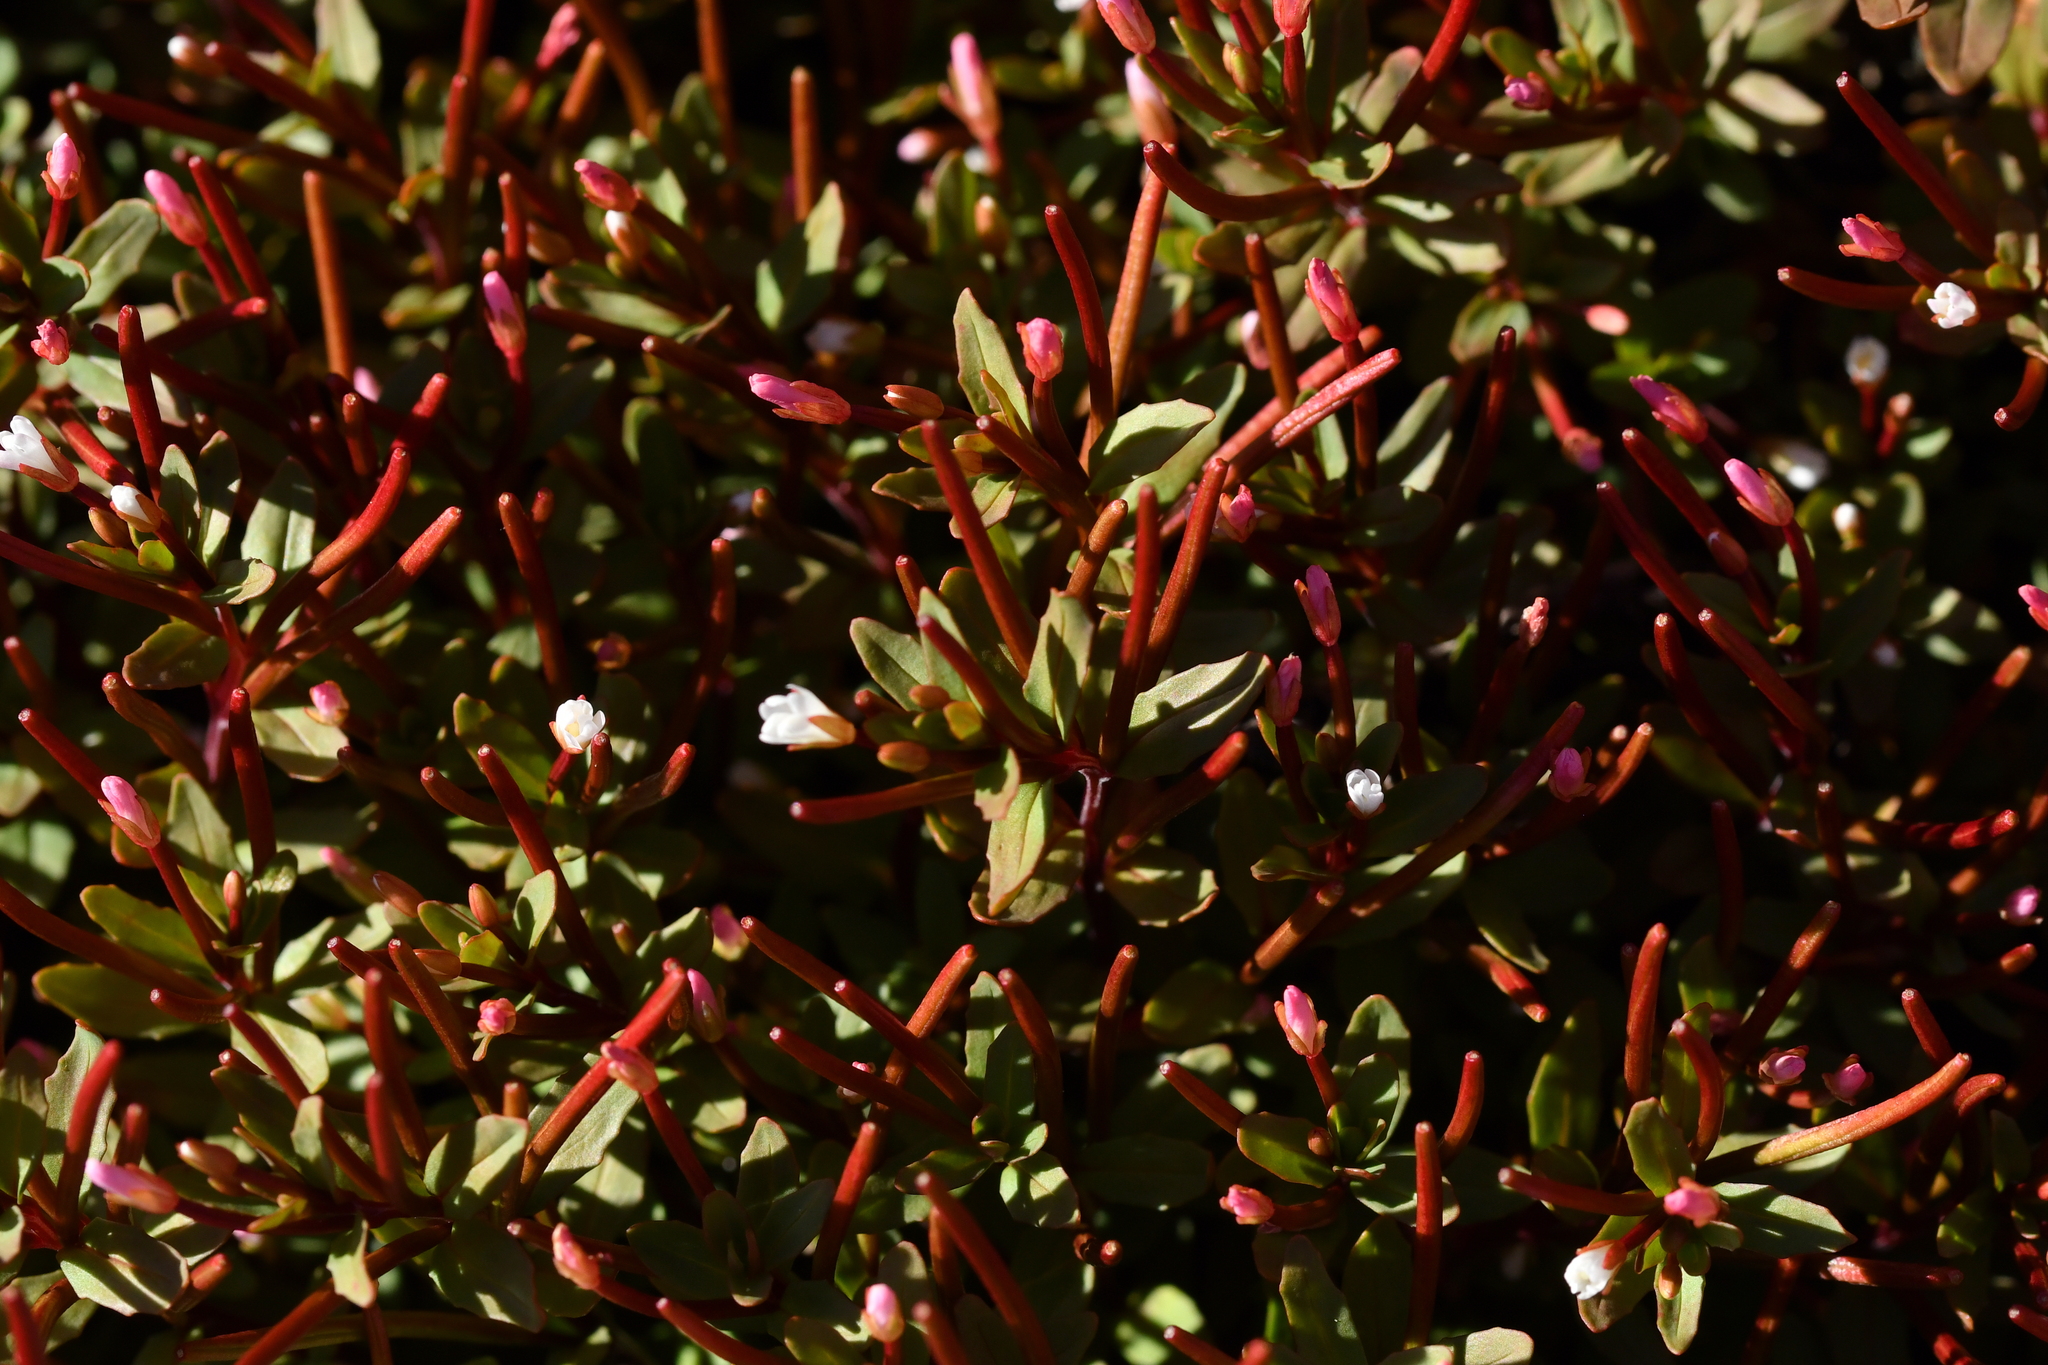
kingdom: Plantae
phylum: Tracheophyta
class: Magnoliopsida
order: Myrtales
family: Onagraceae
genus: Epilobium
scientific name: Epilobium porphyrium
